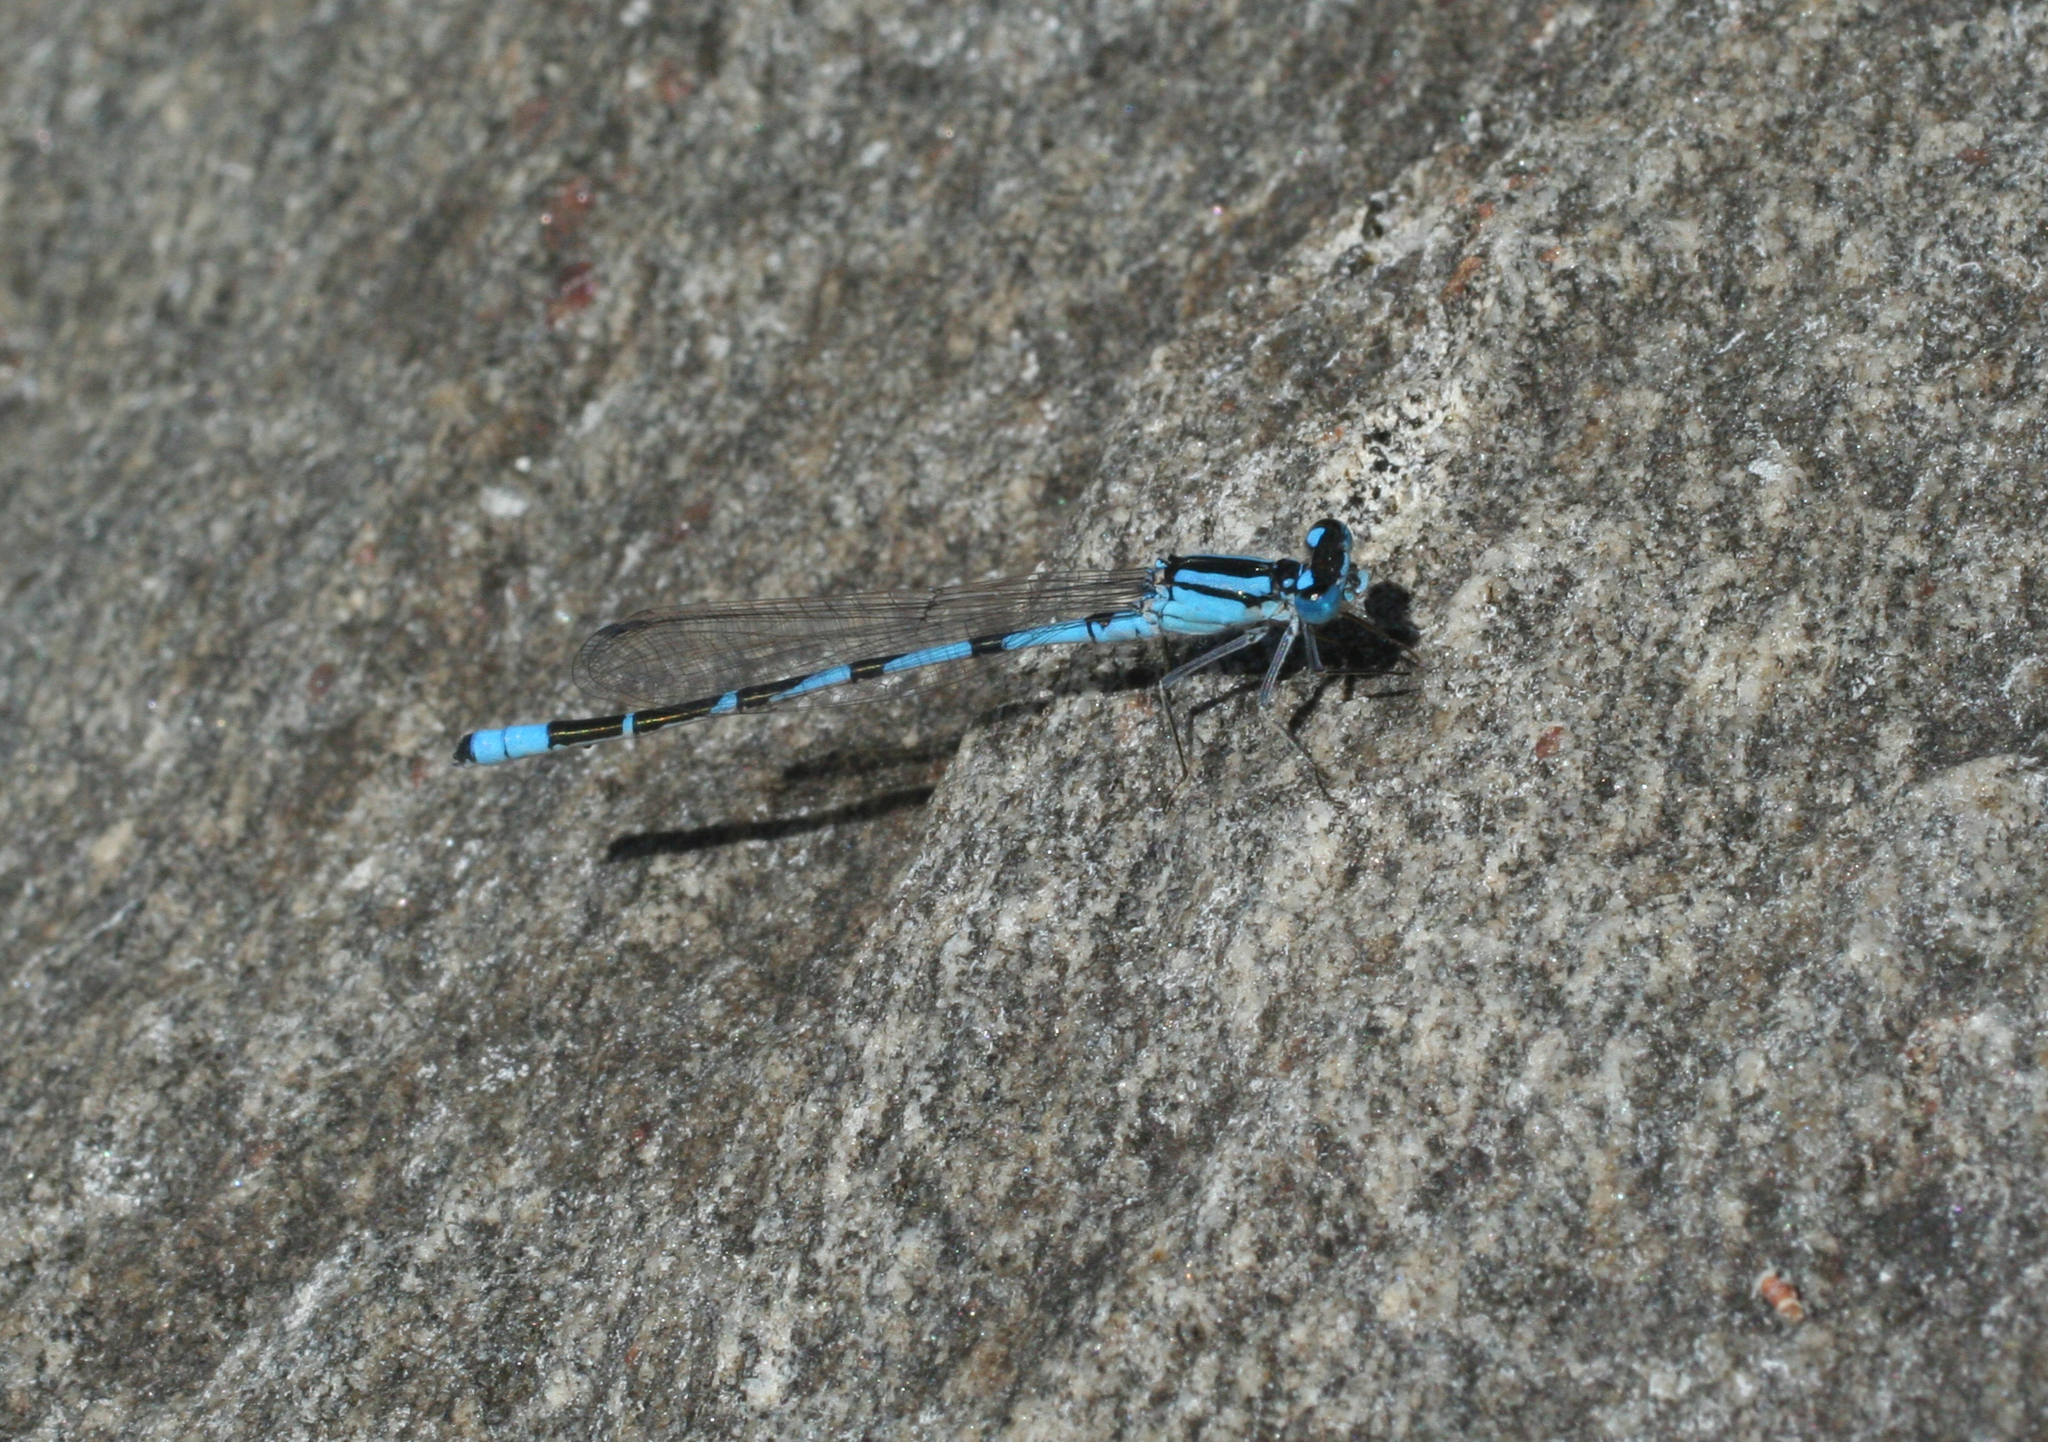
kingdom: Animalia
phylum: Arthropoda
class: Insecta
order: Odonata
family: Coenagrionidae
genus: Enallagma
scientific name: Enallagma cyathigerum
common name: Common blue damselfly
